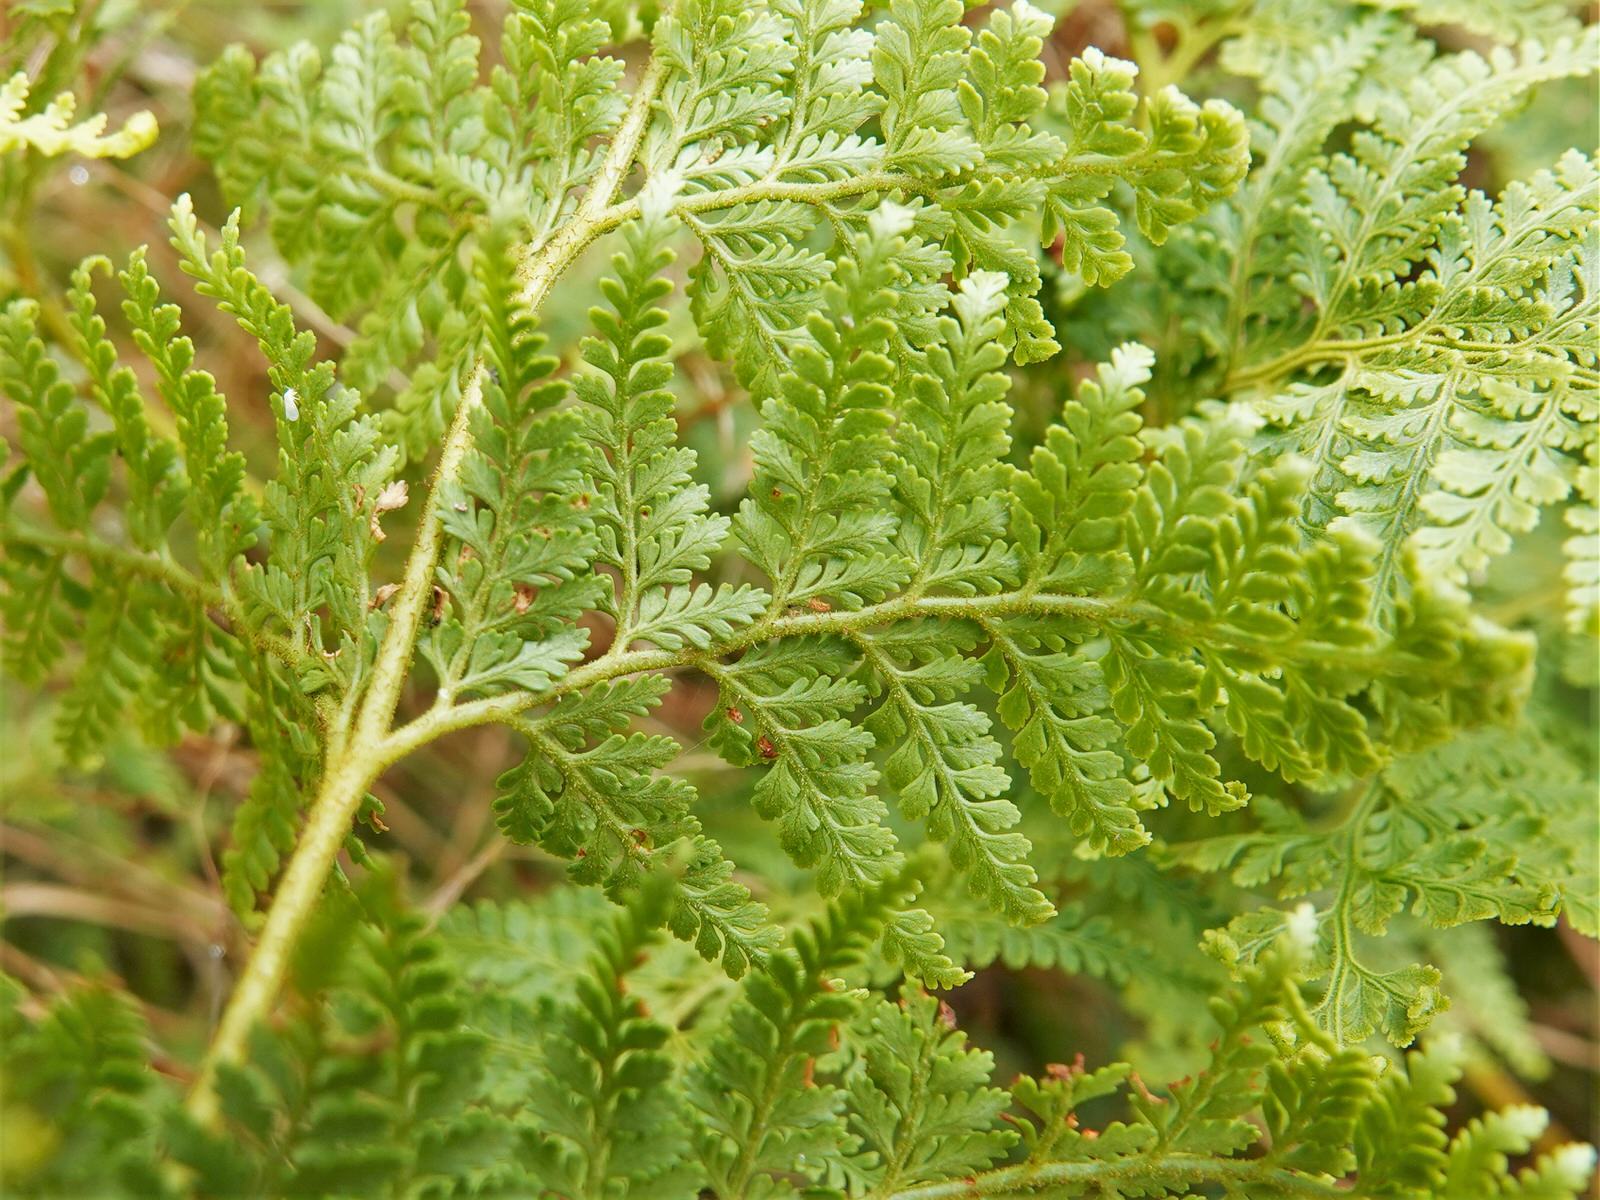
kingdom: Plantae
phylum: Tracheophyta
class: Polypodiopsida
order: Polypodiales
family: Dennstaedtiaceae
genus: Paesia
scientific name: Paesia scaberula
